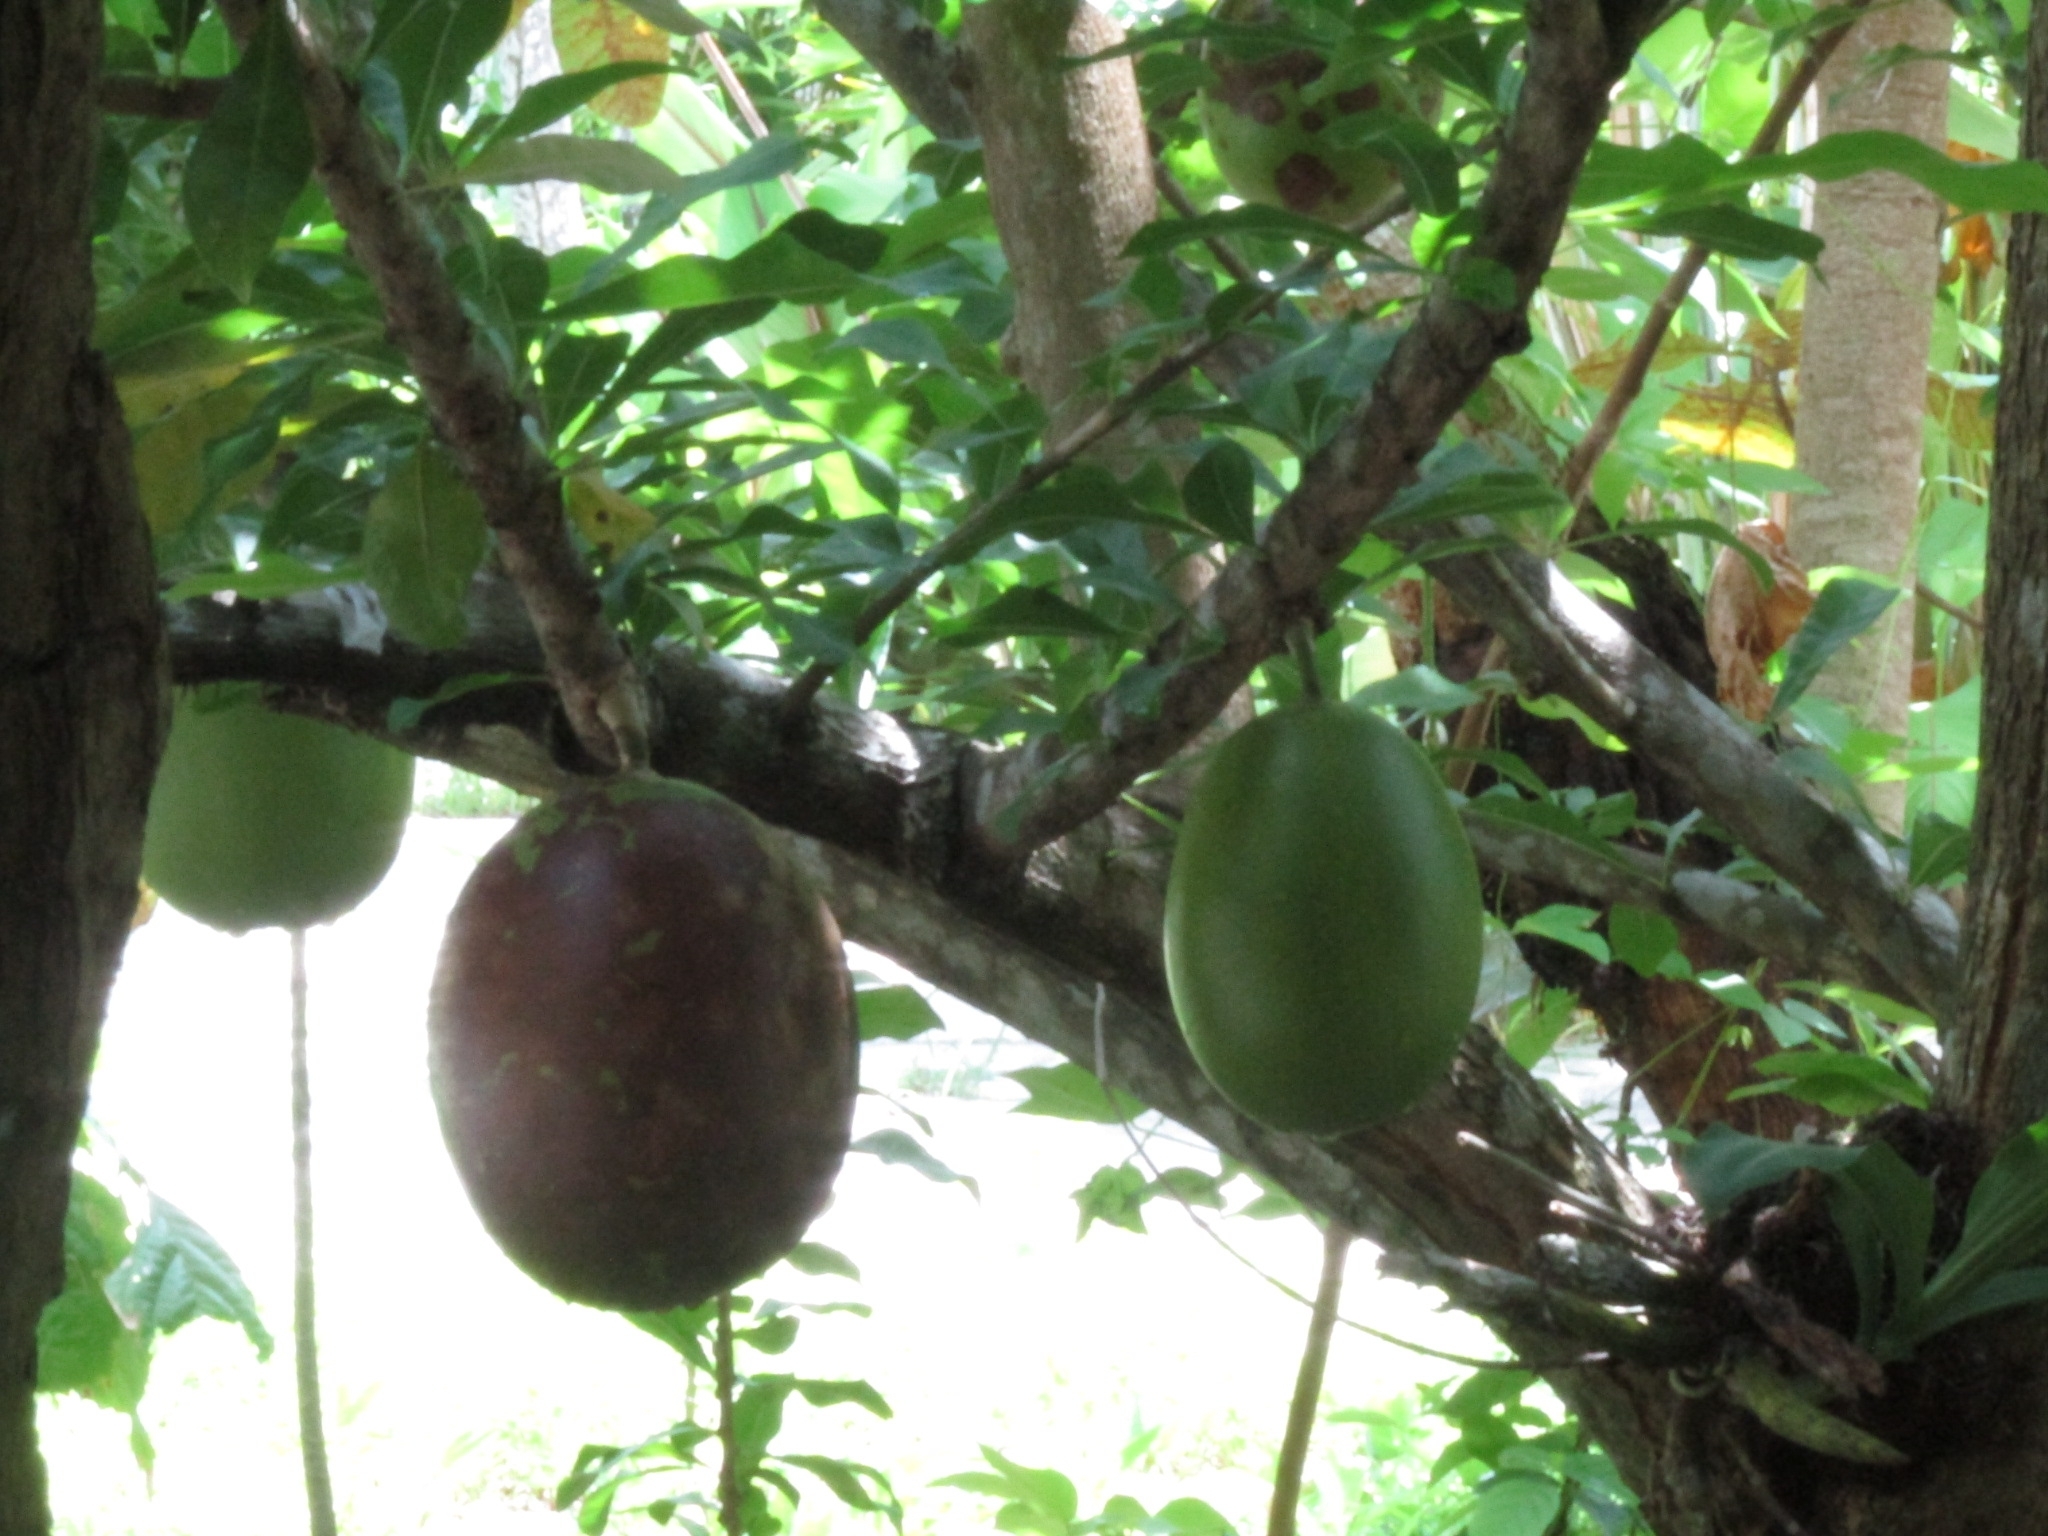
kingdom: Plantae
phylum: Tracheophyta
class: Magnoliopsida
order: Lamiales
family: Bignoniaceae
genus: Crescentia
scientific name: Crescentia alata
